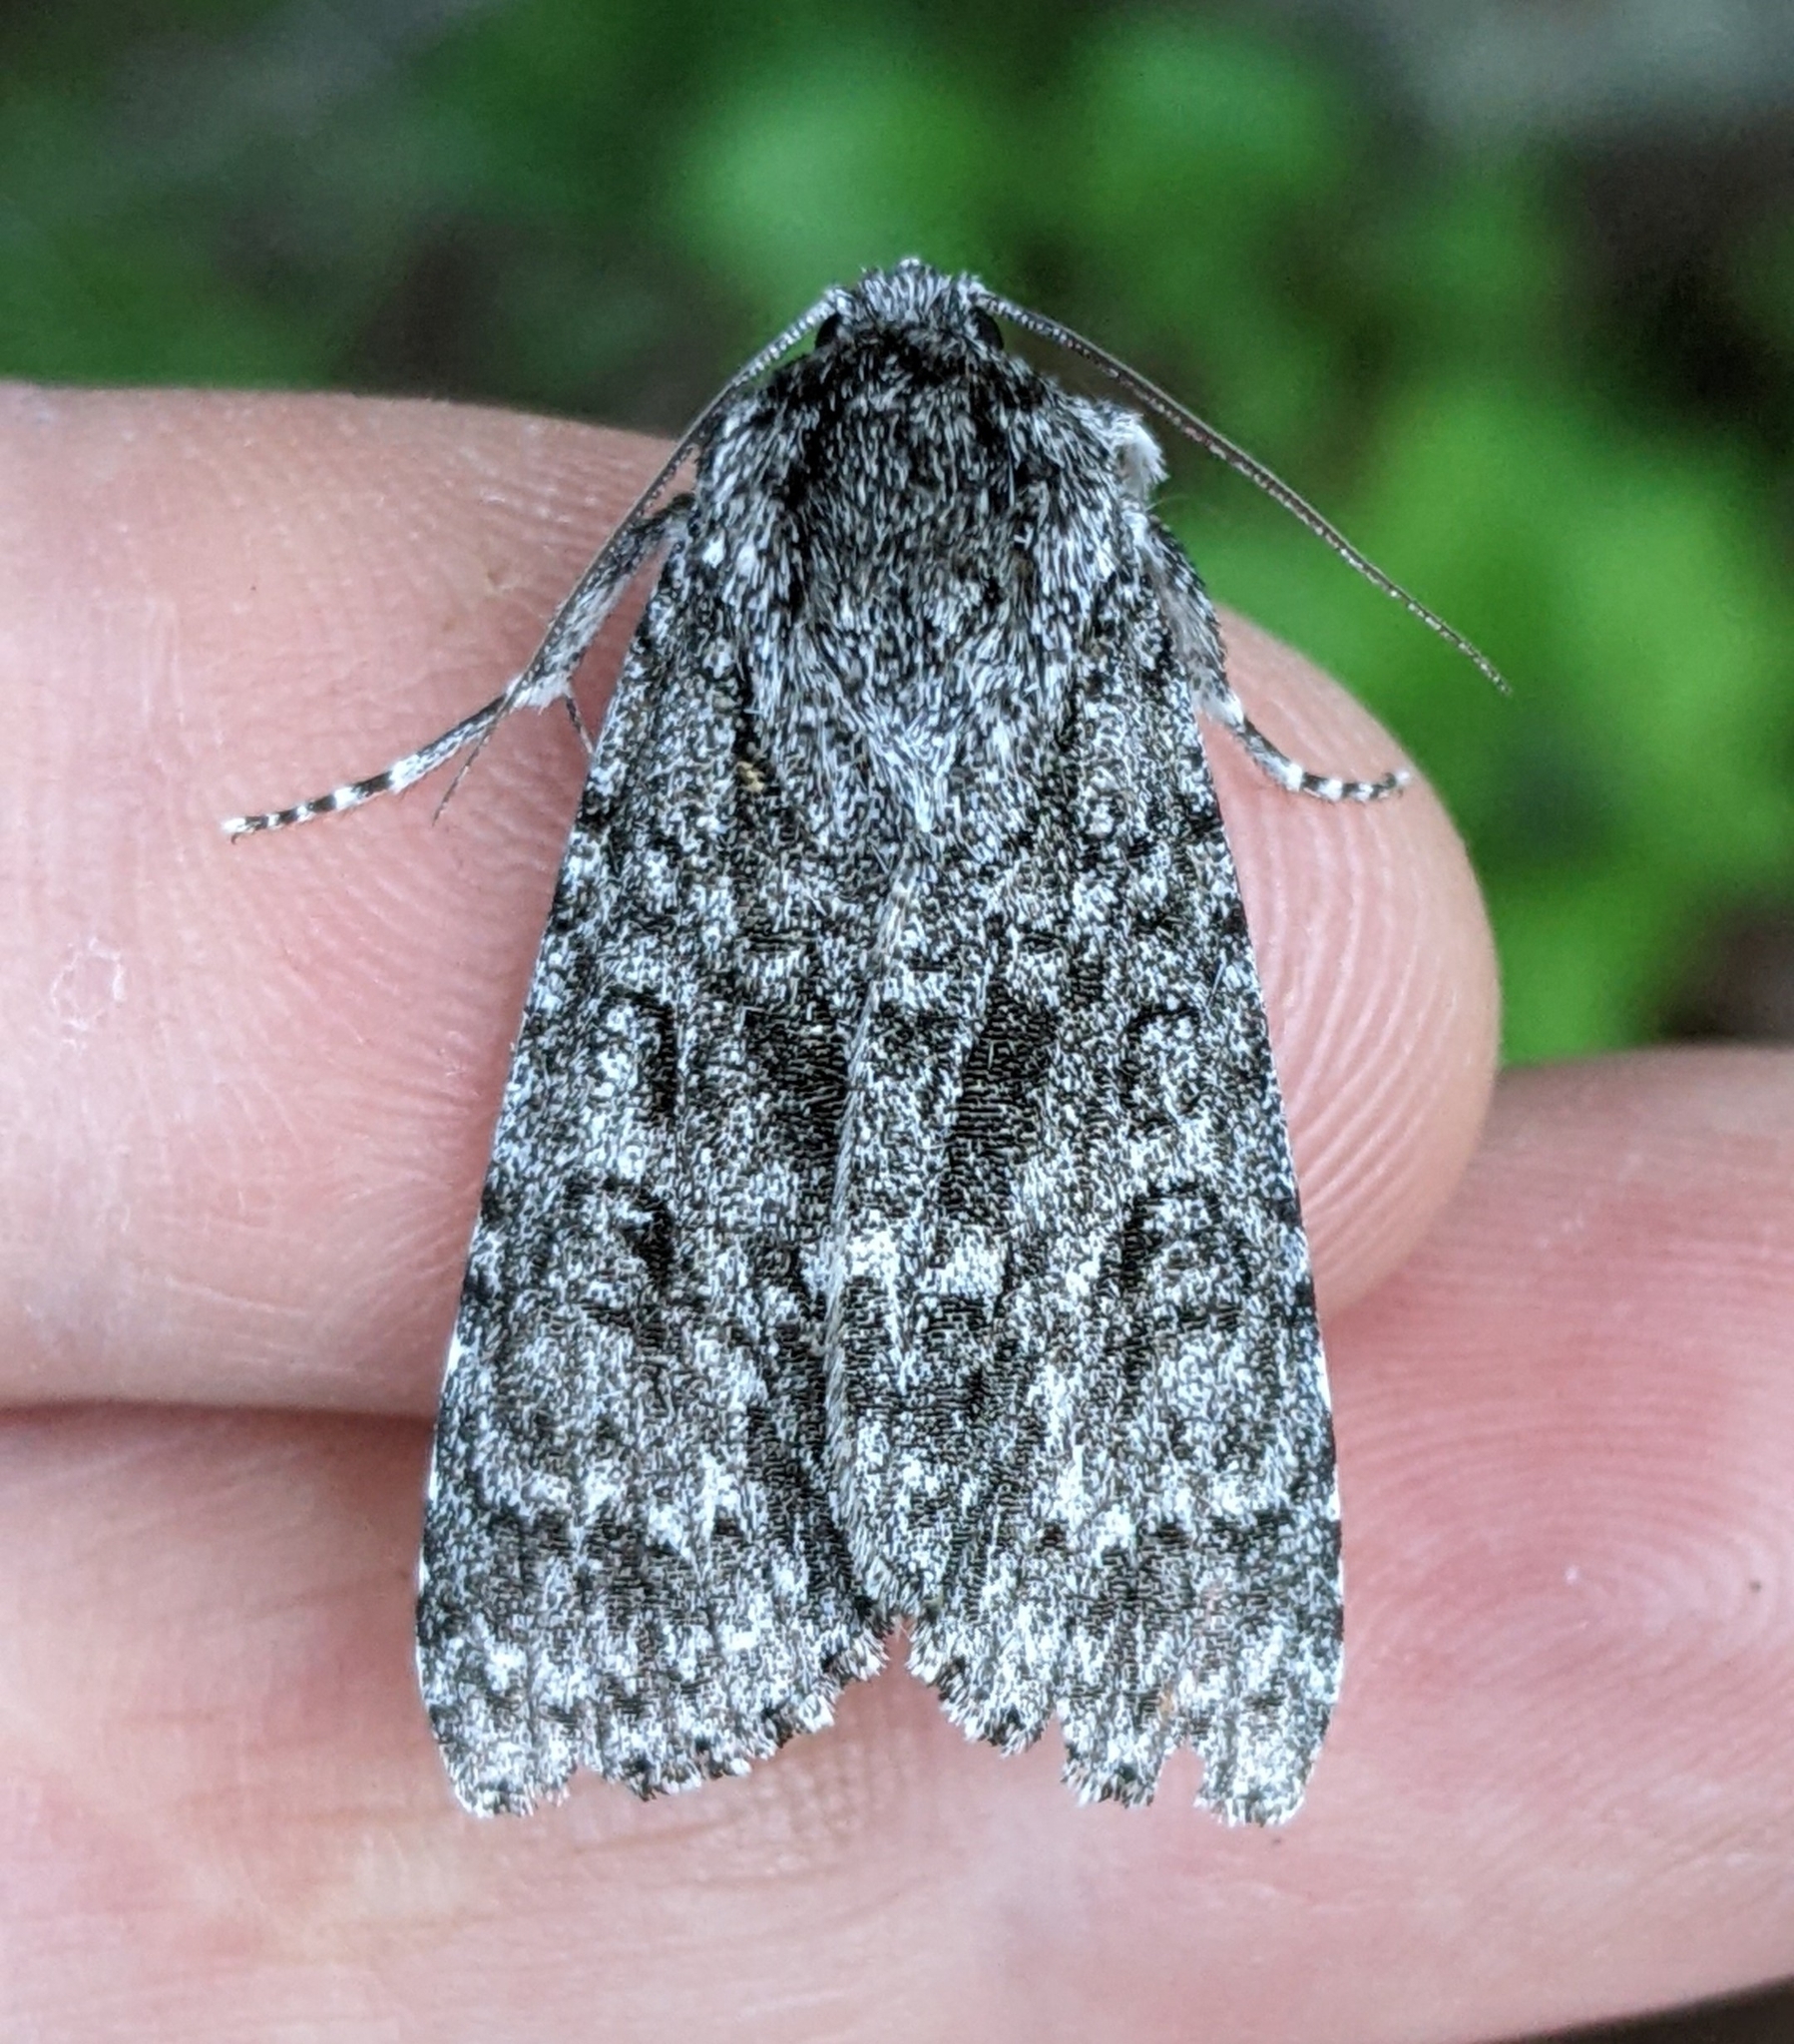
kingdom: Animalia
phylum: Arthropoda
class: Insecta
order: Lepidoptera
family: Noctuidae
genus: Acronicta
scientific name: Acronicta impleta
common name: Powdered dagger
